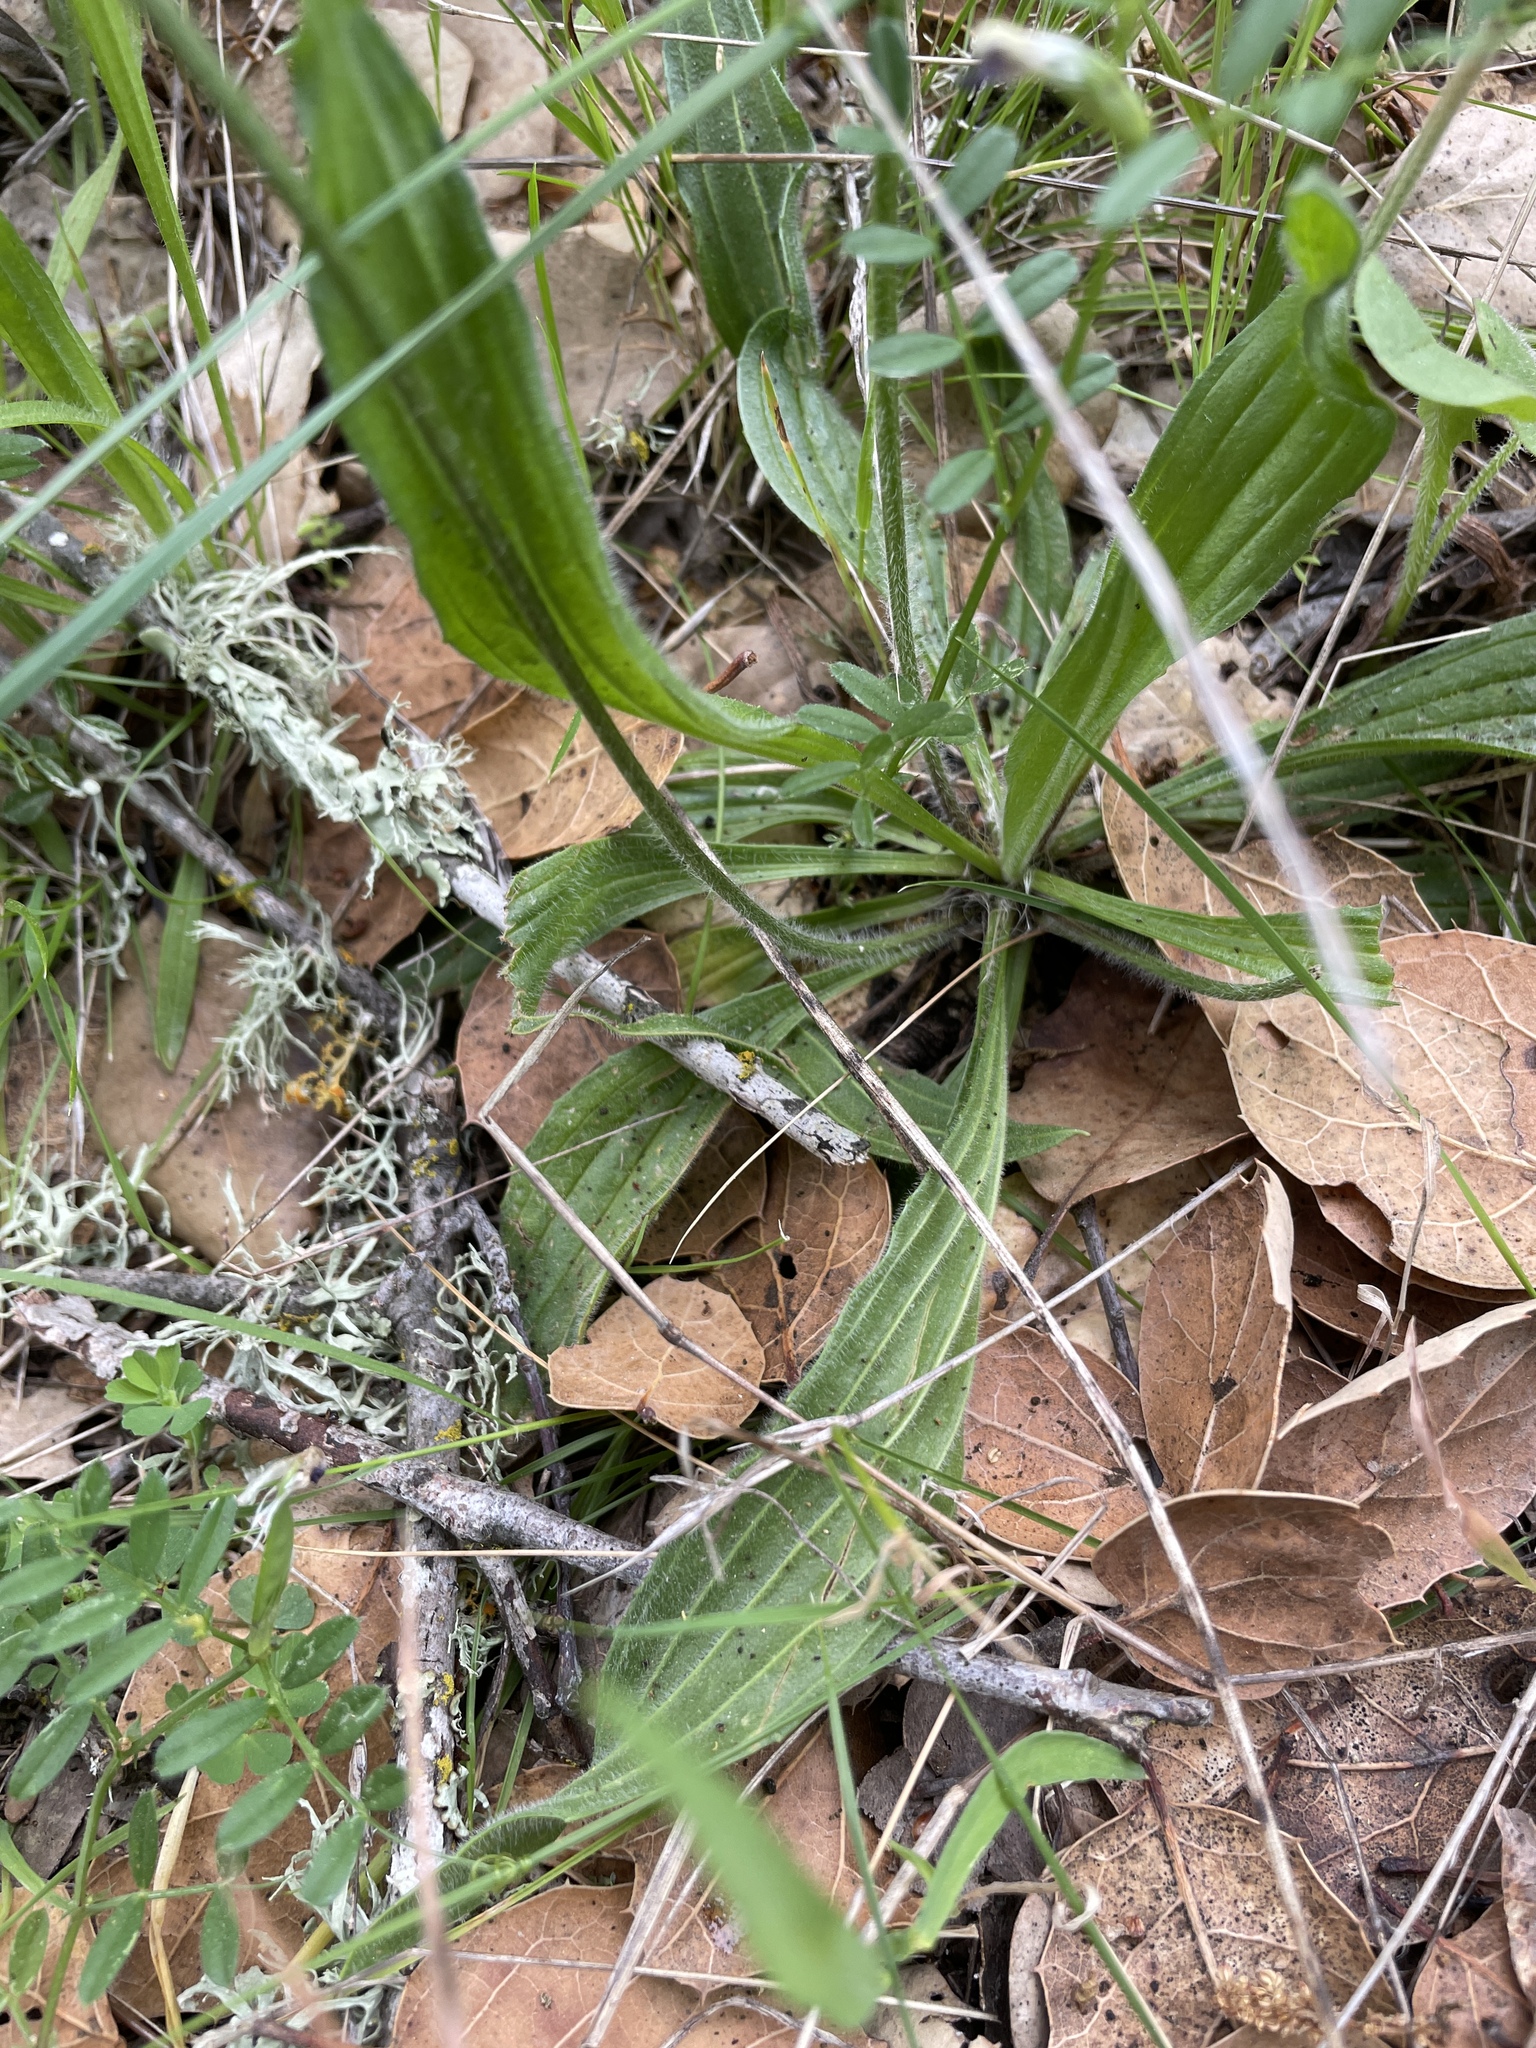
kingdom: Plantae
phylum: Tracheophyta
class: Magnoliopsida
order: Lamiales
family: Plantaginaceae
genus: Plantago
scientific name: Plantago lanceolata
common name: Ribwort plantain
